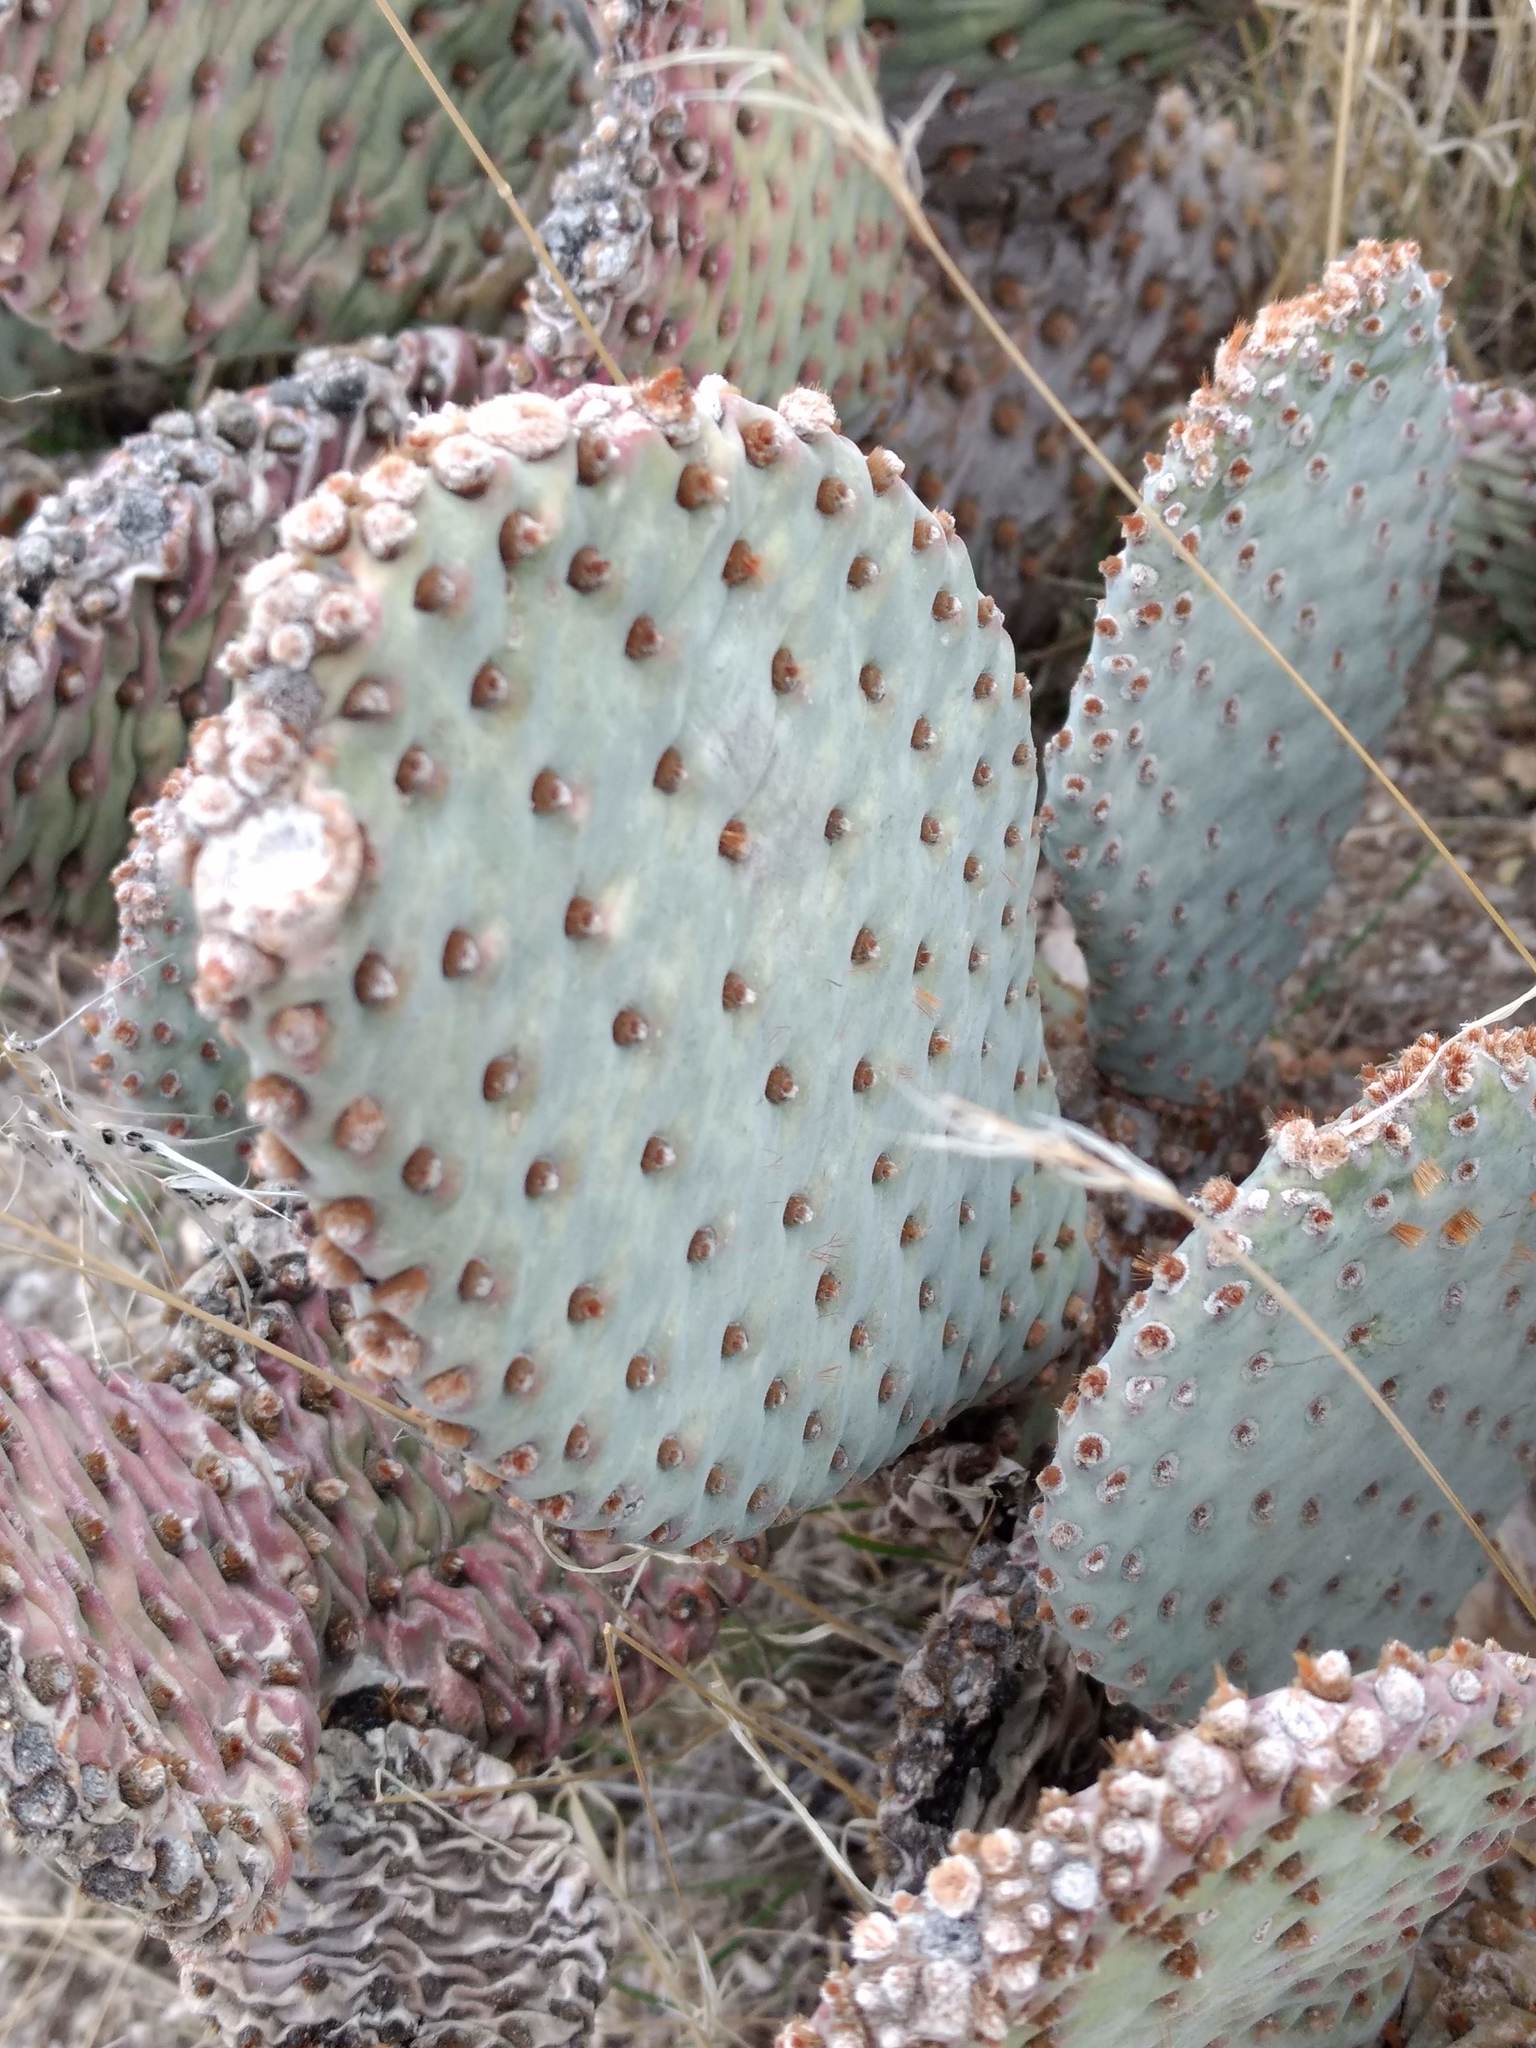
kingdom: Plantae
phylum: Tracheophyta
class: Magnoliopsida
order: Caryophyllales
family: Cactaceae
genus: Opuntia
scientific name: Opuntia basilaris
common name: Beavertail prickly-pear
